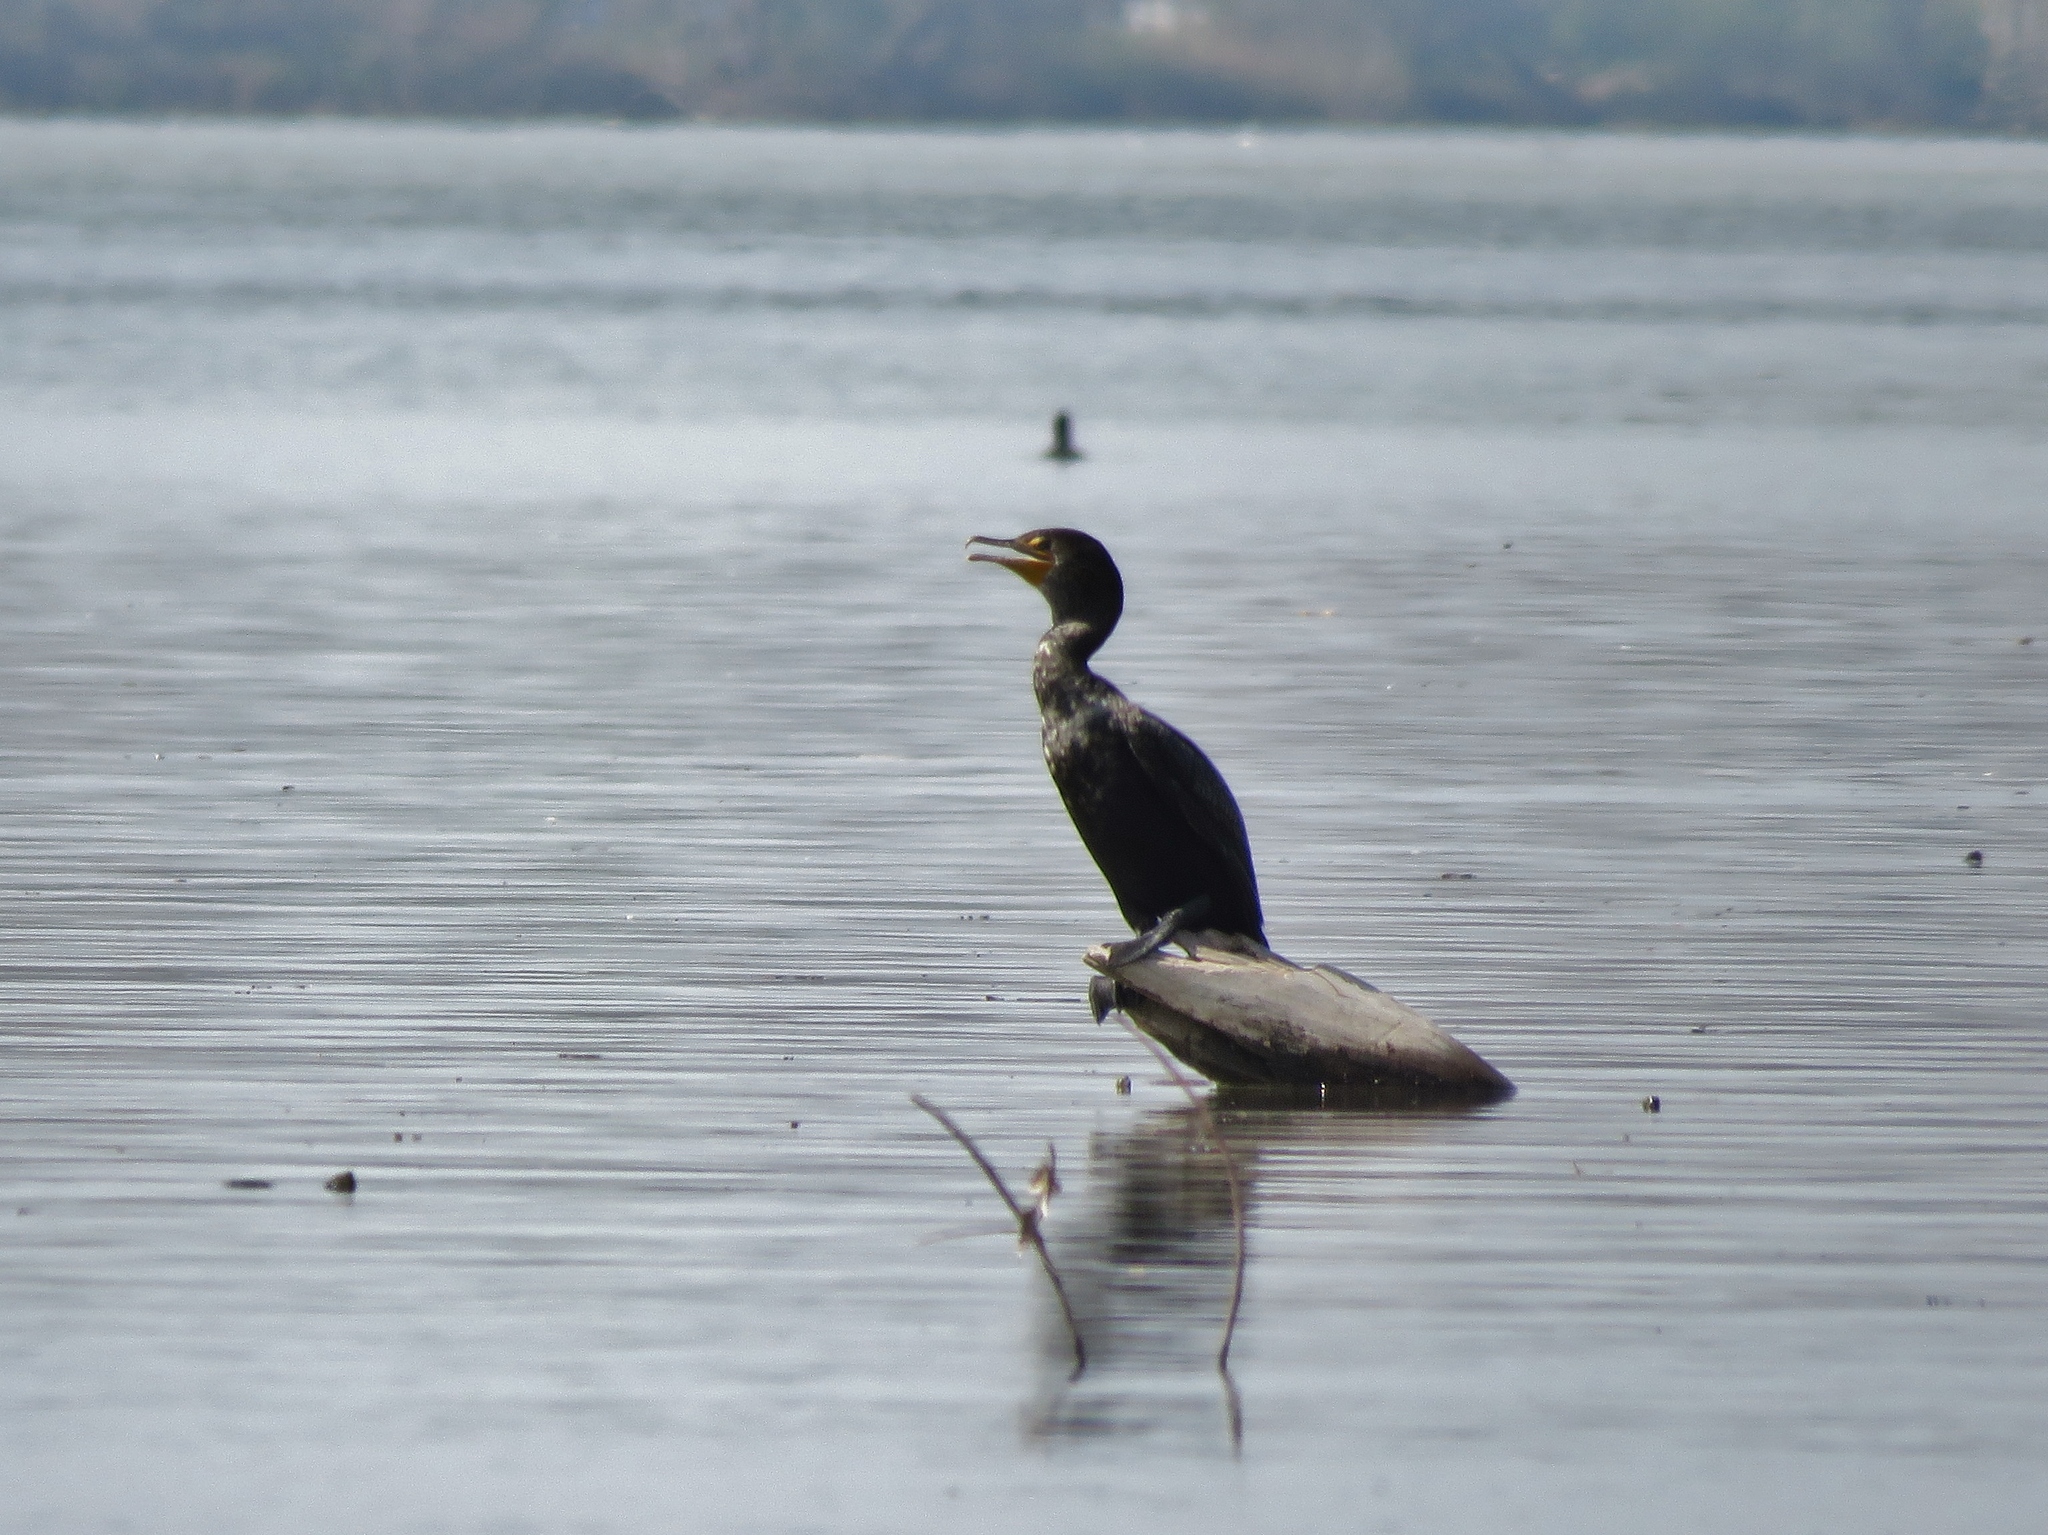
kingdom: Animalia
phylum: Chordata
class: Aves
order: Suliformes
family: Phalacrocoracidae
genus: Phalacrocorax
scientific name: Phalacrocorax auritus
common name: Double-crested cormorant
